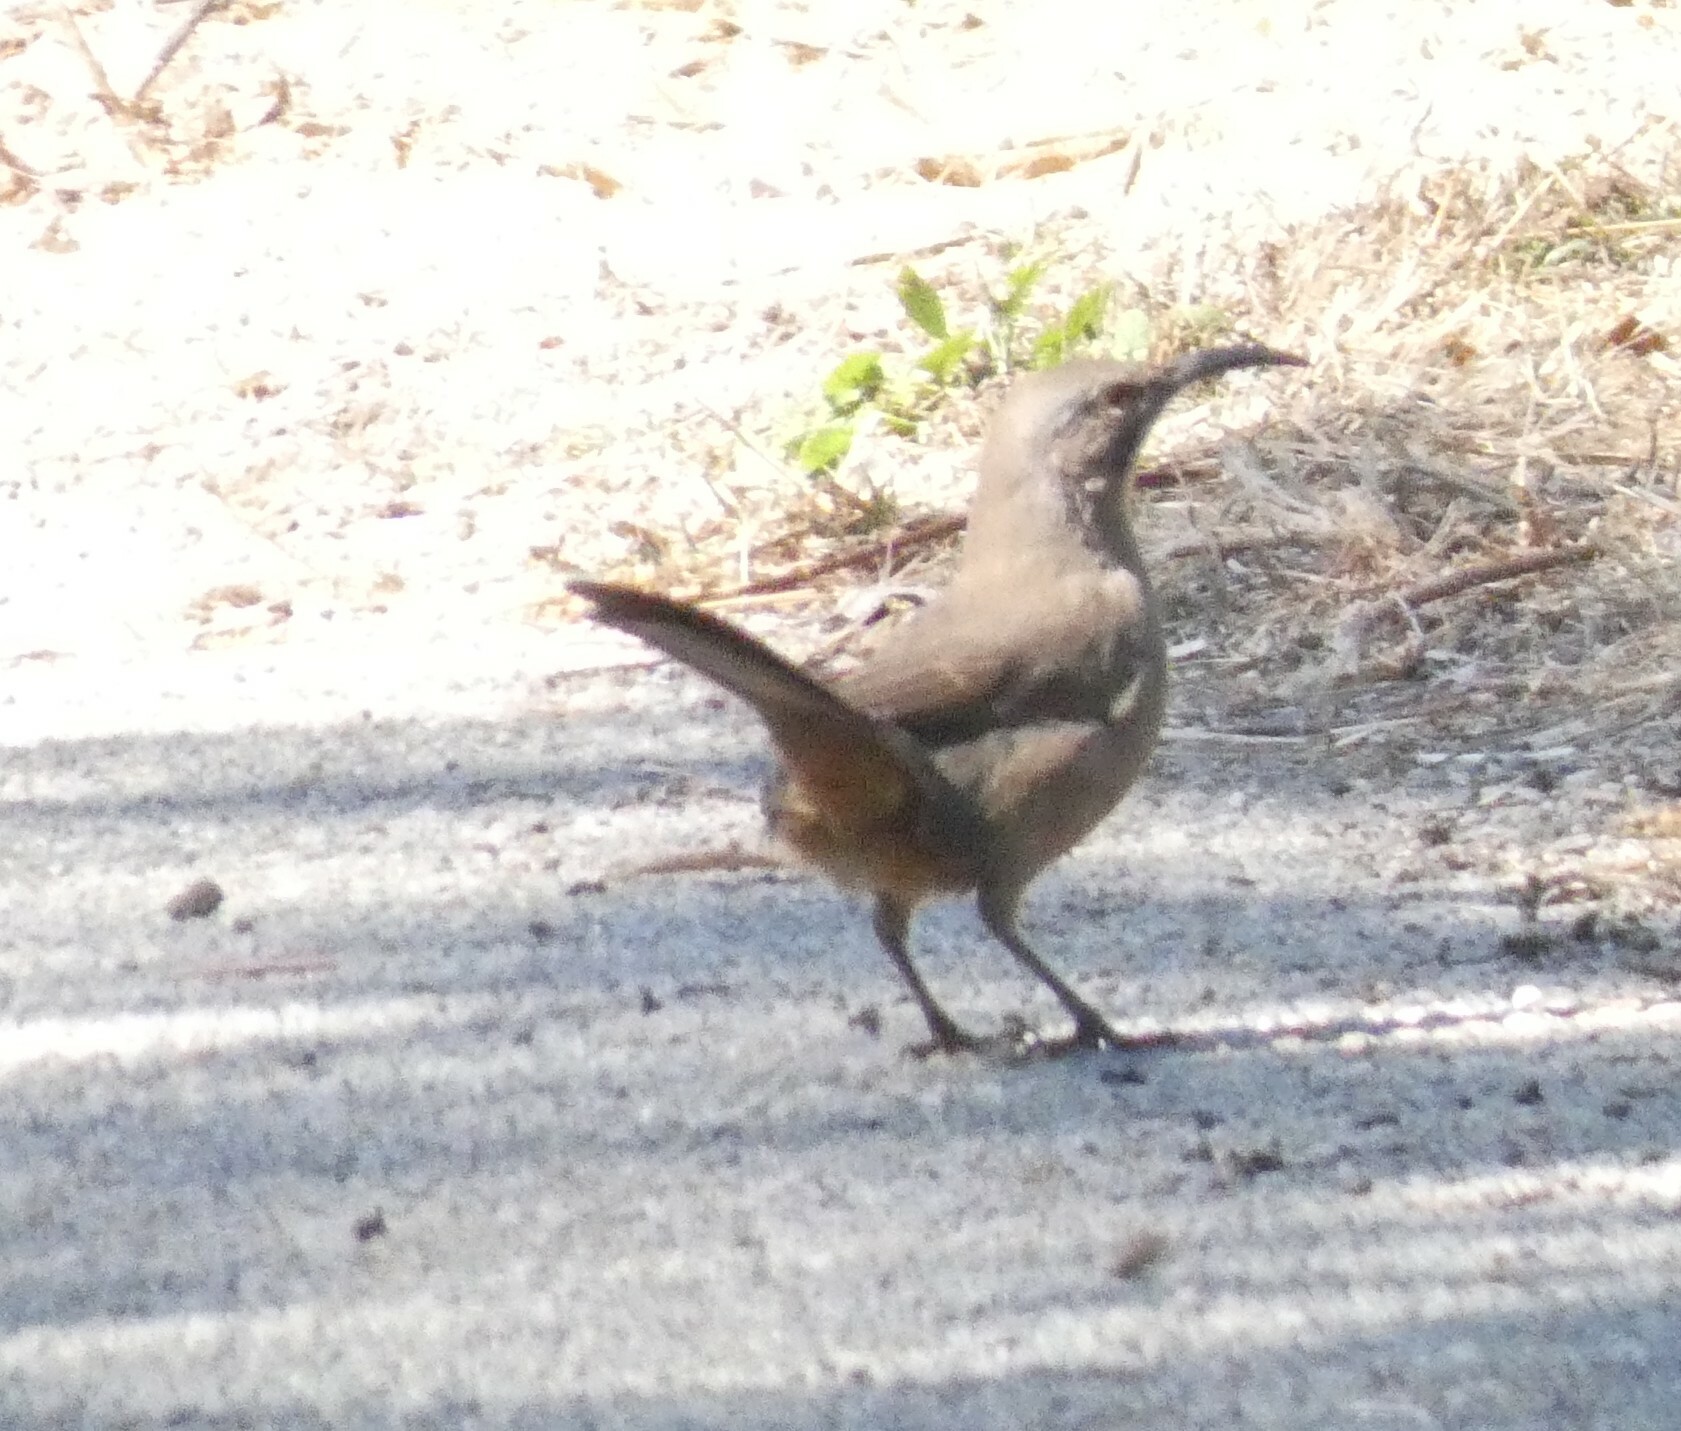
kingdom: Animalia
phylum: Chordata
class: Aves
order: Passeriformes
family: Mimidae
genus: Toxostoma
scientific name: Toxostoma redivivum
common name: California thrasher
